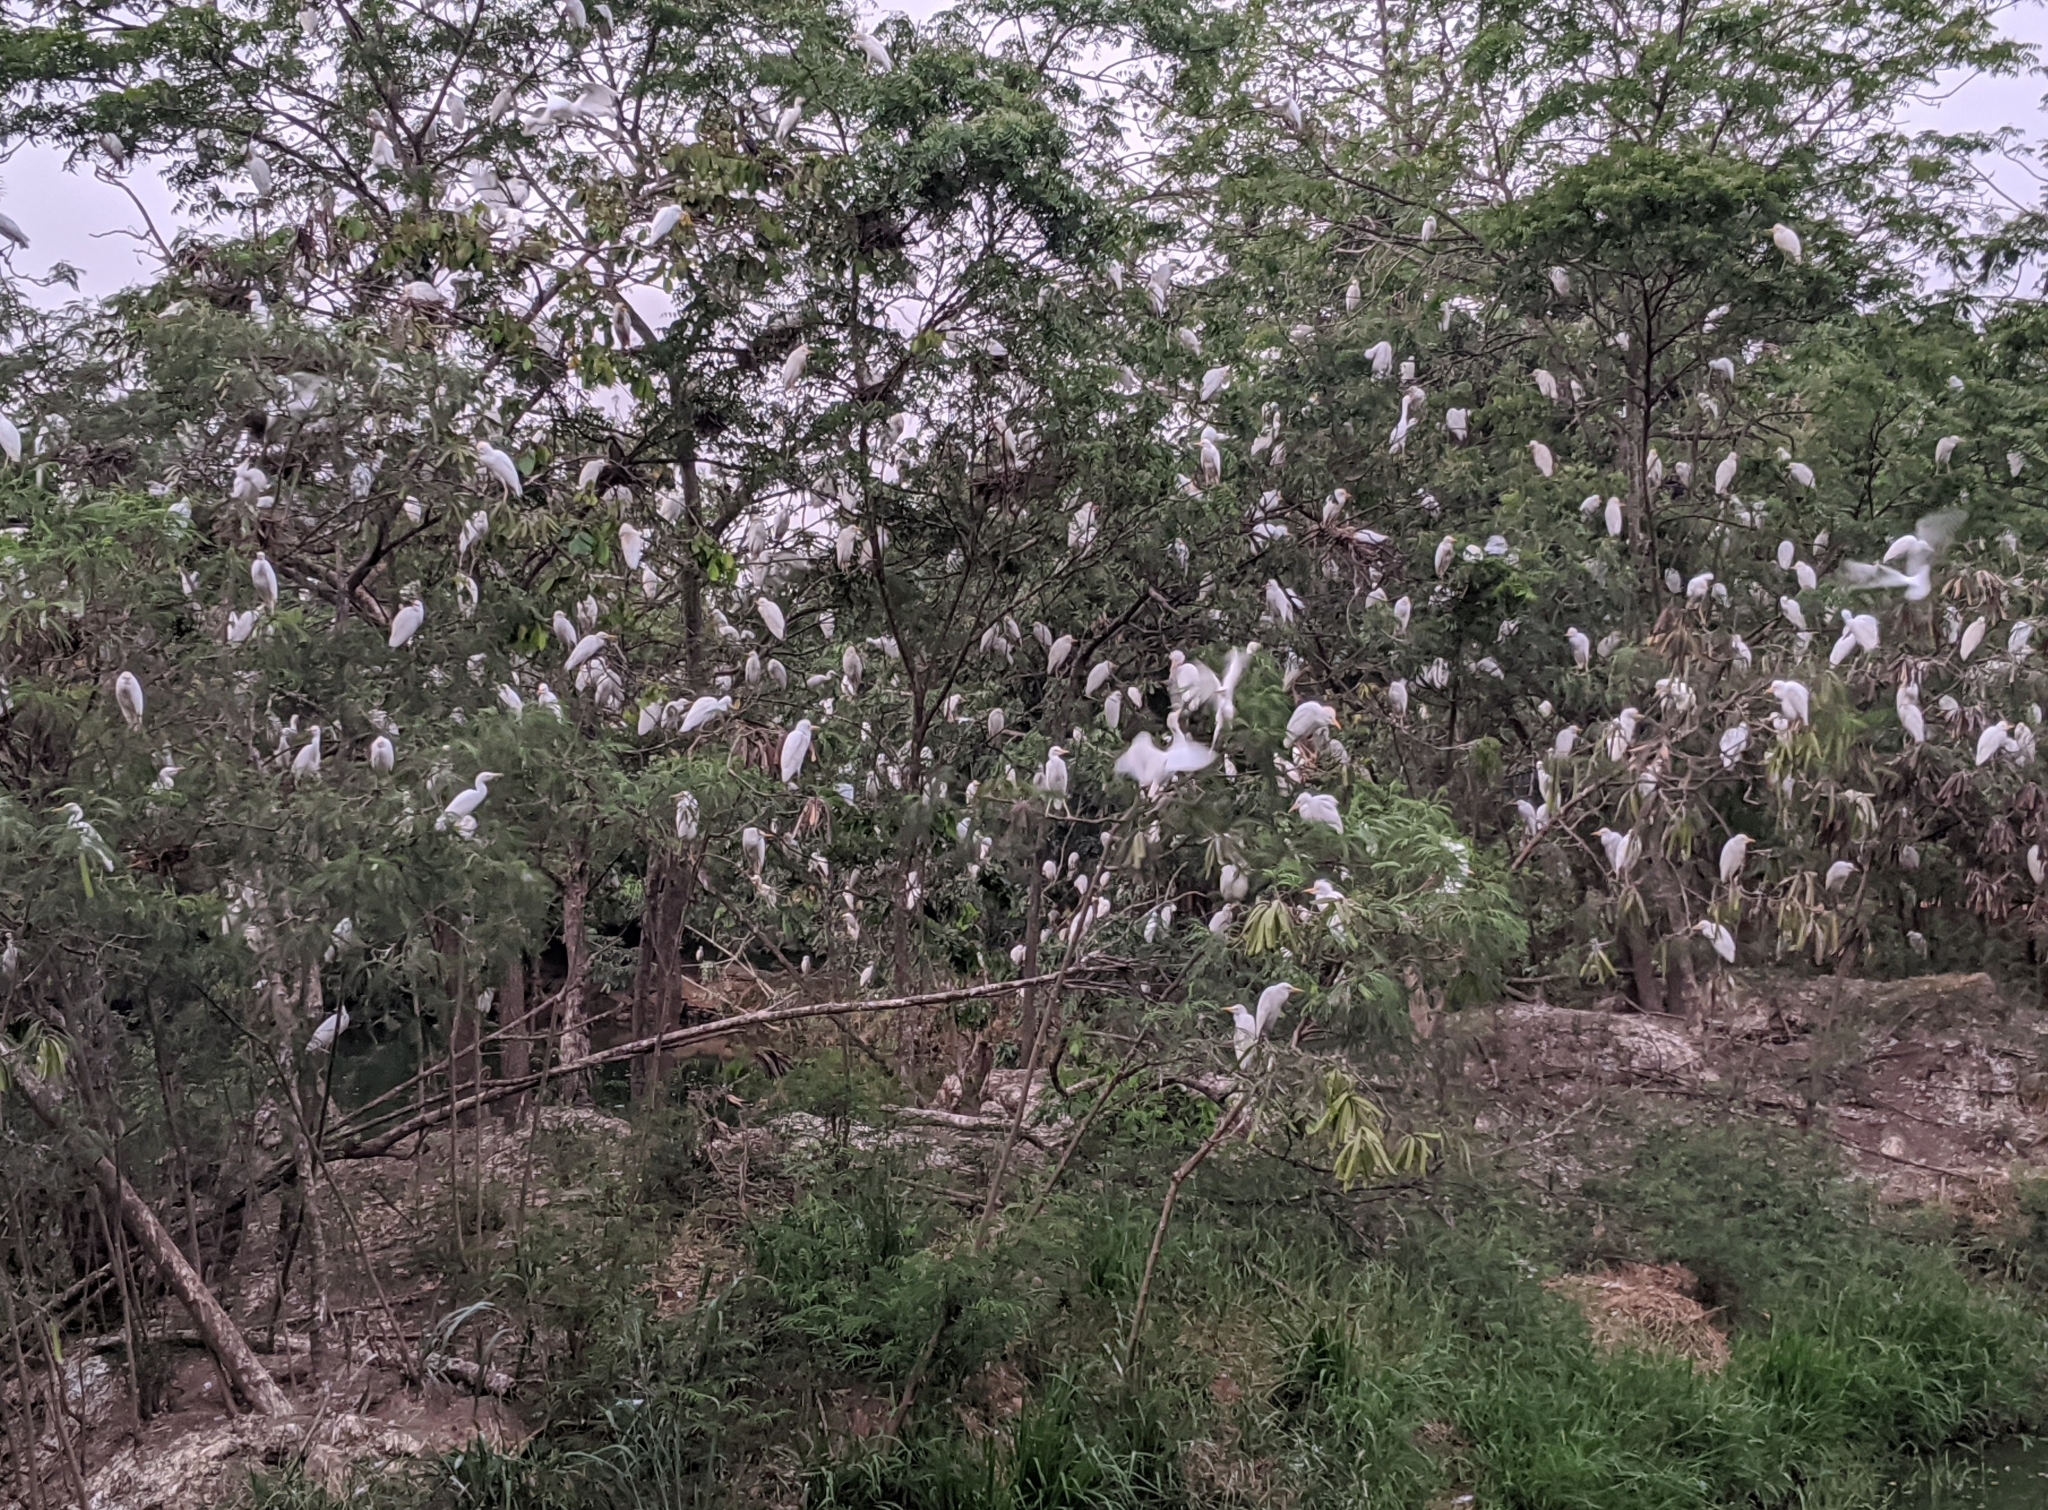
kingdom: Animalia
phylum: Chordata
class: Aves
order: Pelecaniformes
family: Ardeidae
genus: Bubulcus
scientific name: Bubulcus ibis
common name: Cattle egret
